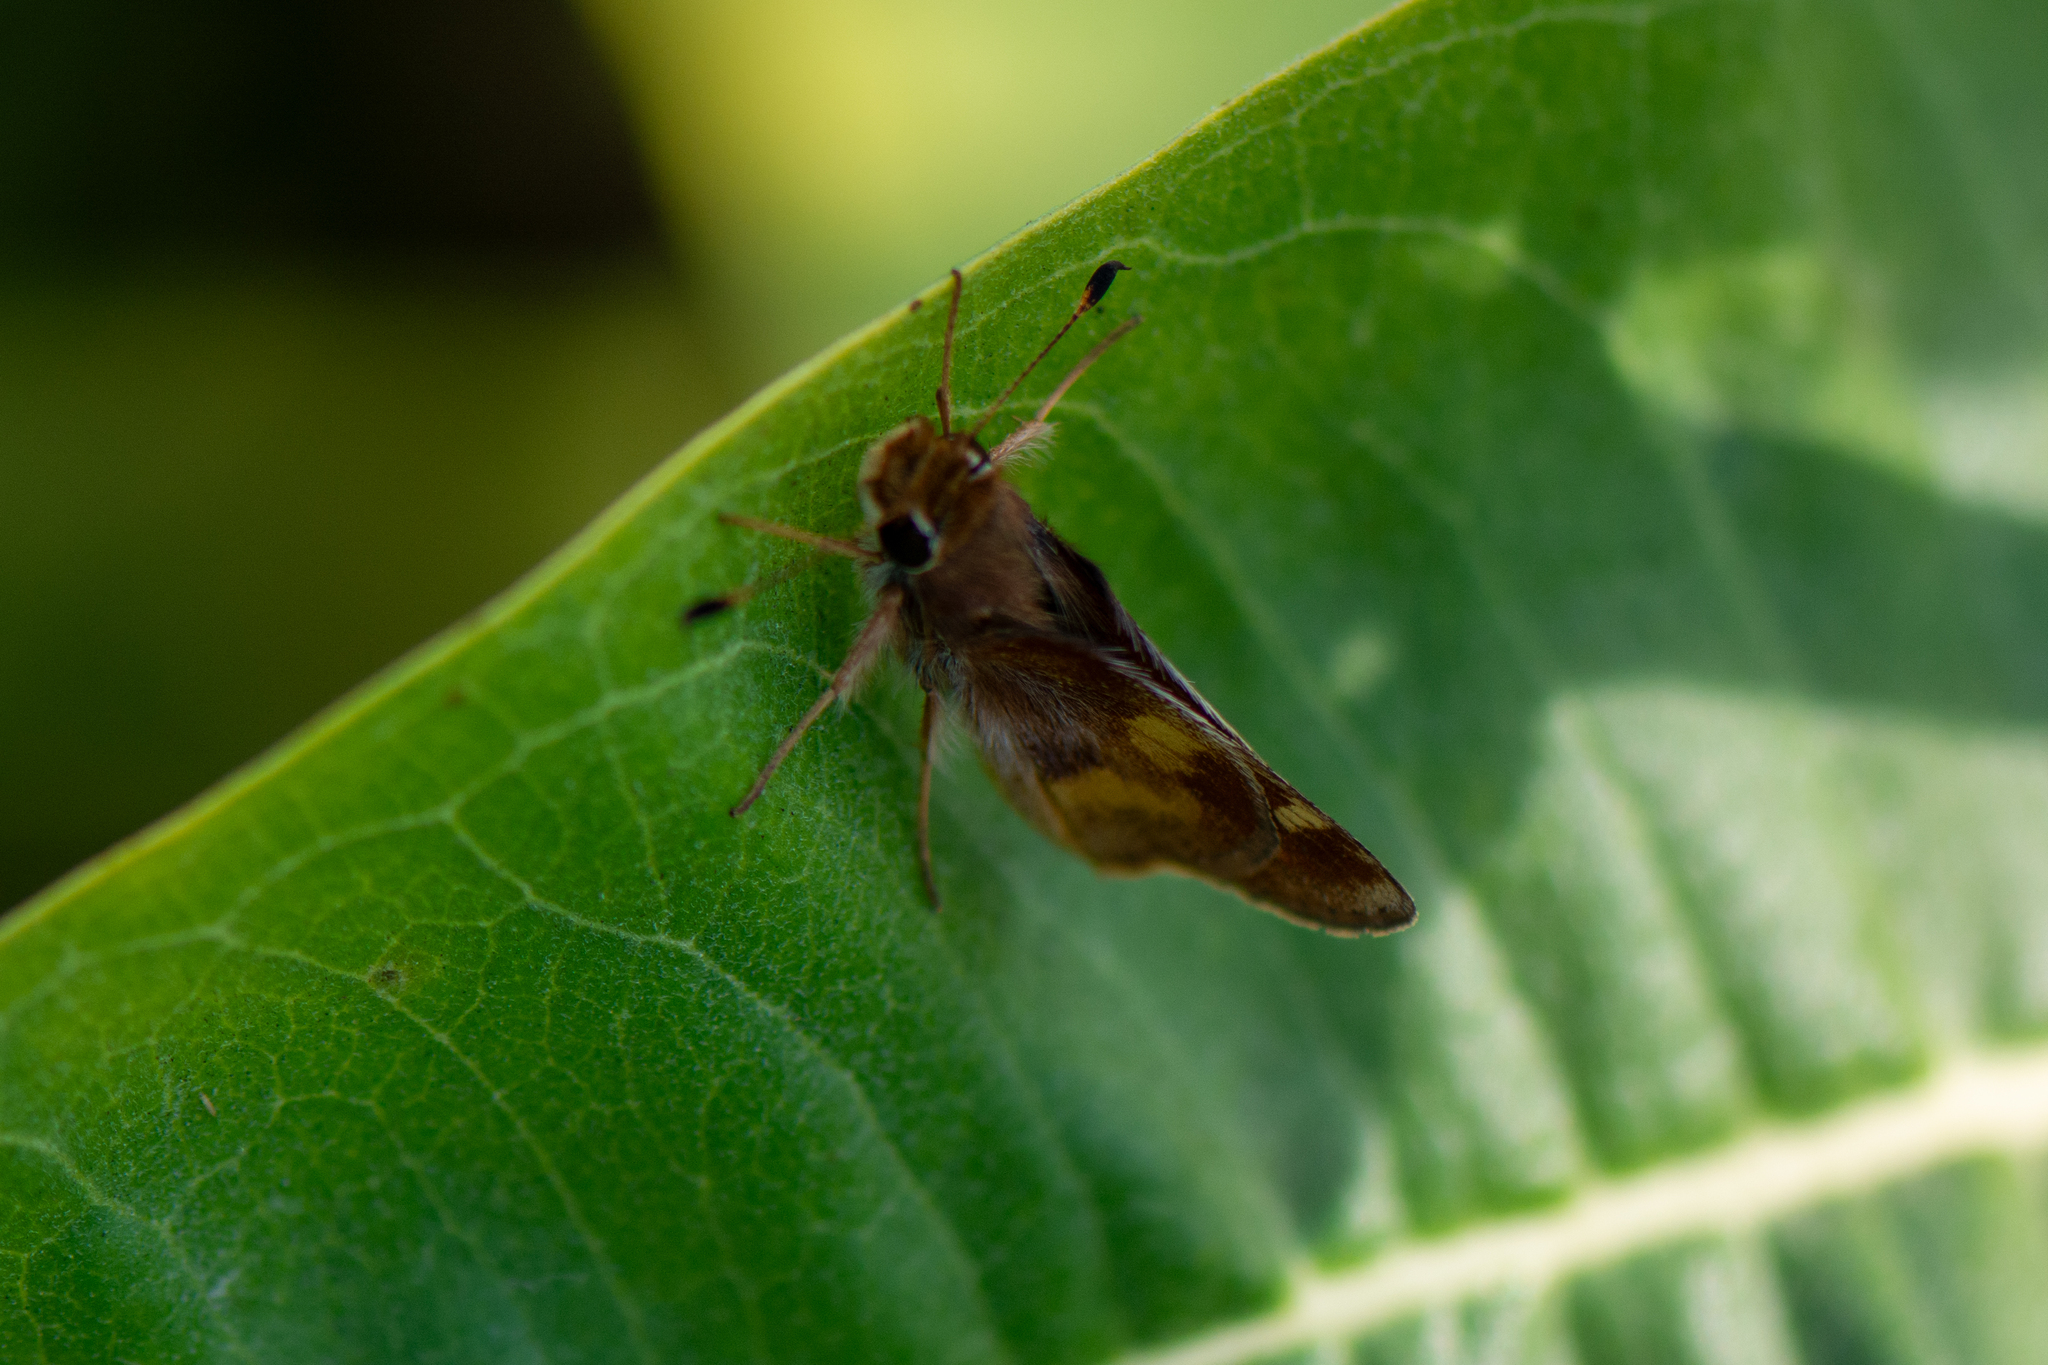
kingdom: Animalia
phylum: Arthropoda
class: Insecta
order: Lepidoptera
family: Hesperiidae
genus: Lon
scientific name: Lon melane
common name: Umber skipper
